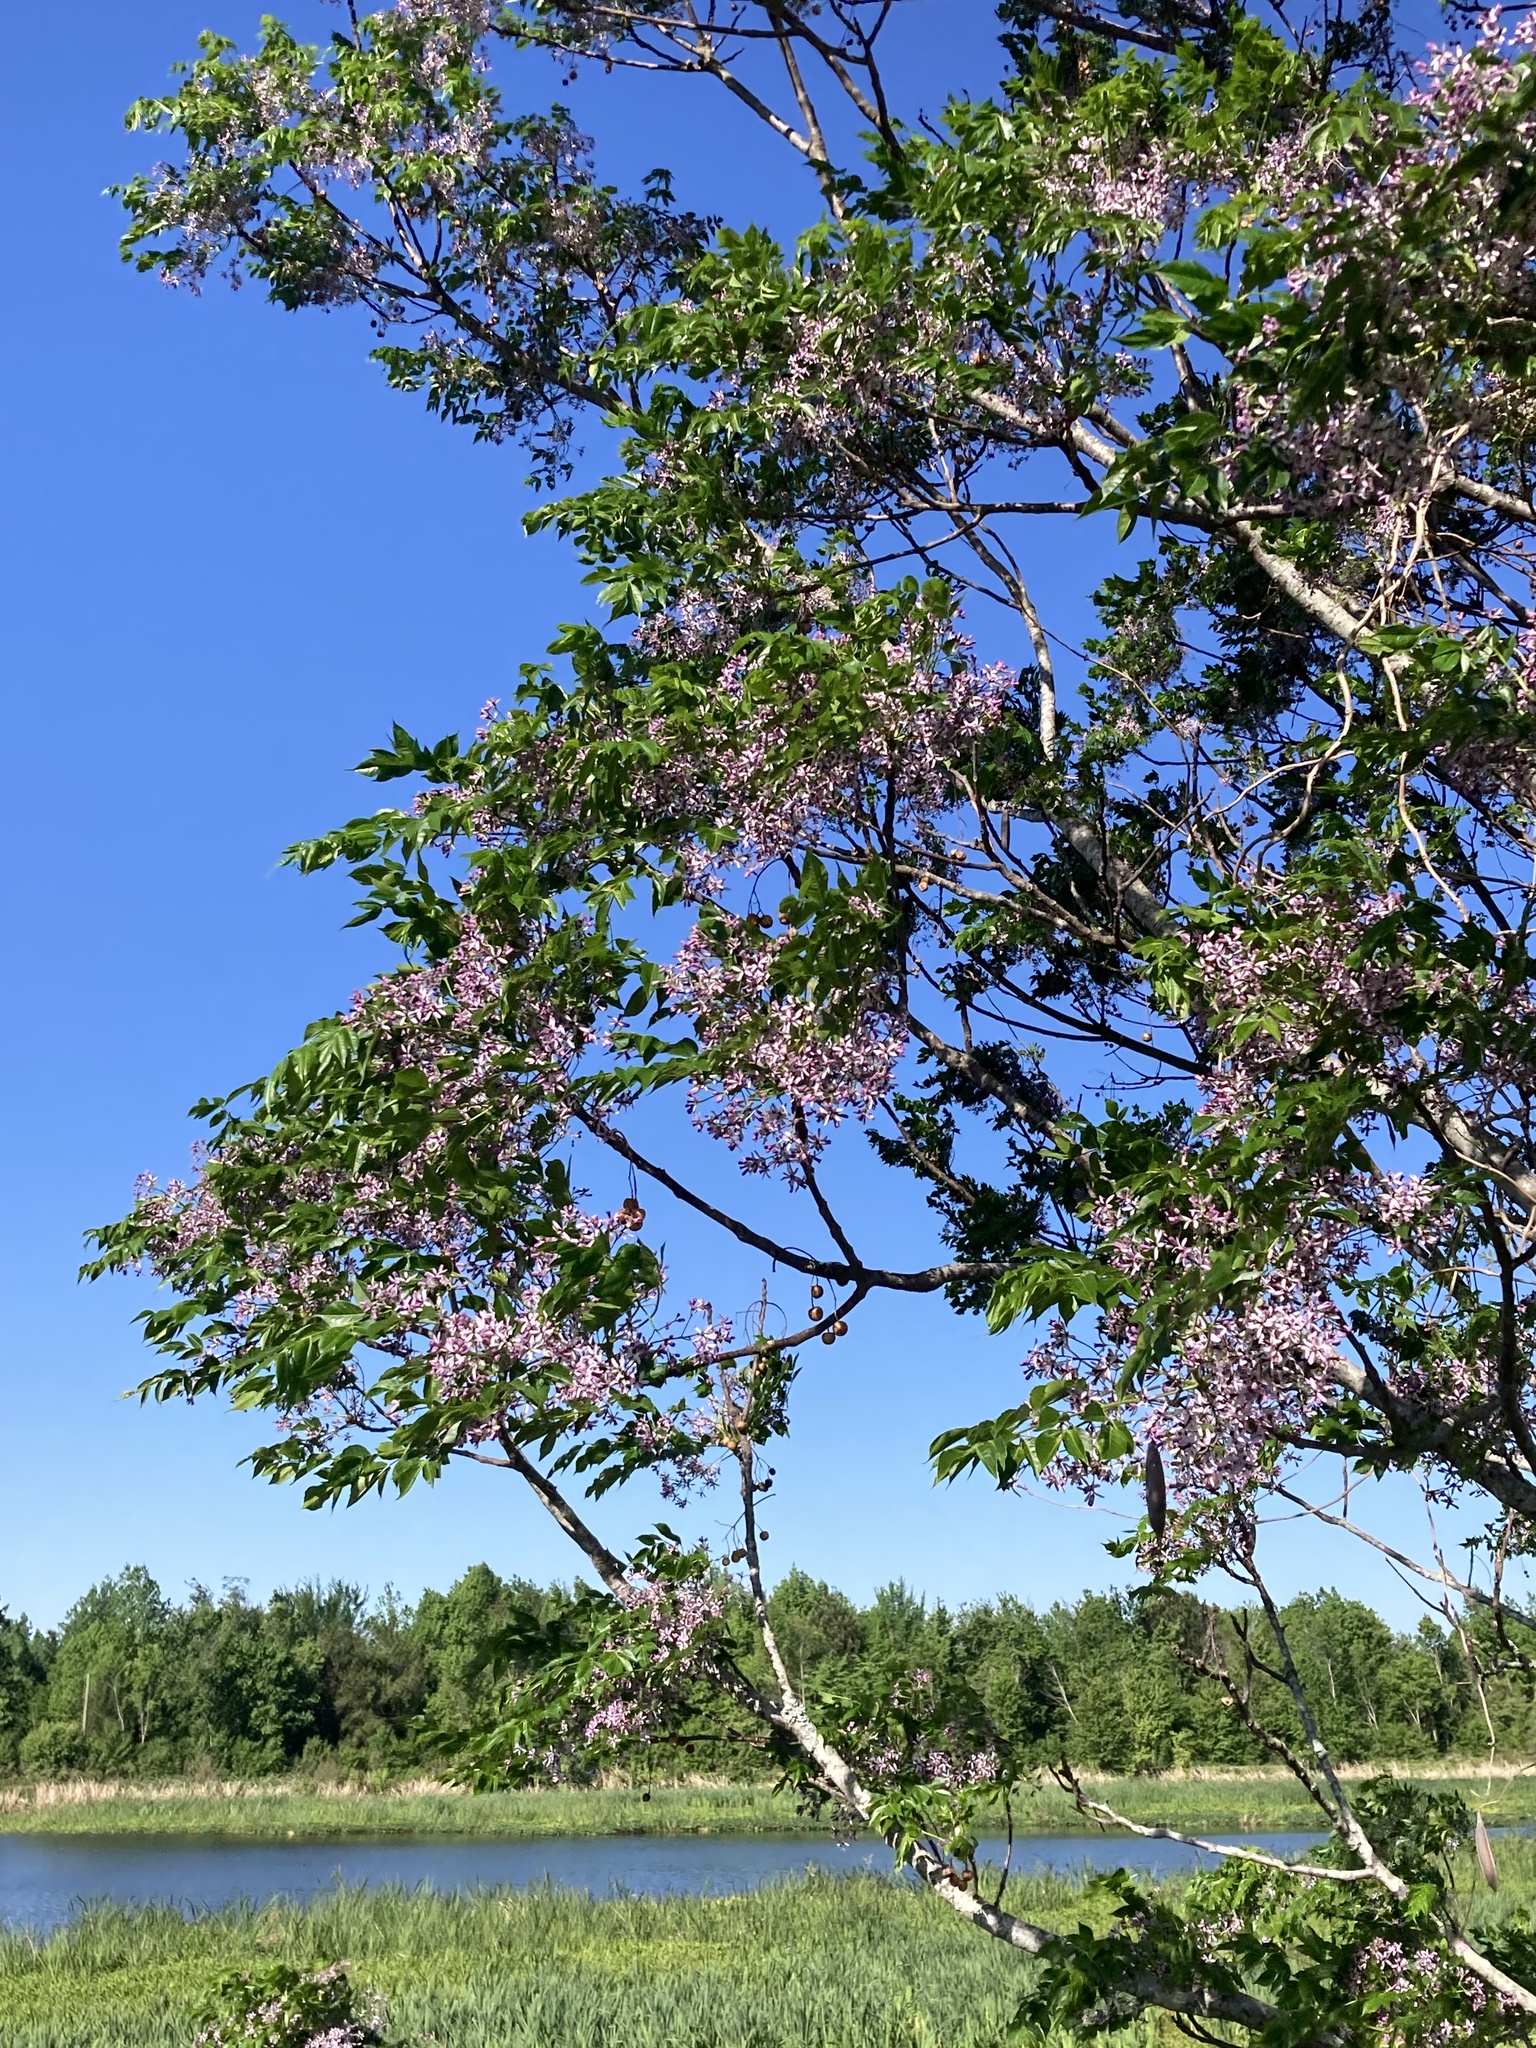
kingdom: Plantae
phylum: Tracheophyta
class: Magnoliopsida
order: Sapindales
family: Meliaceae
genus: Melia
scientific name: Melia azedarach
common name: Chinaberrytree
